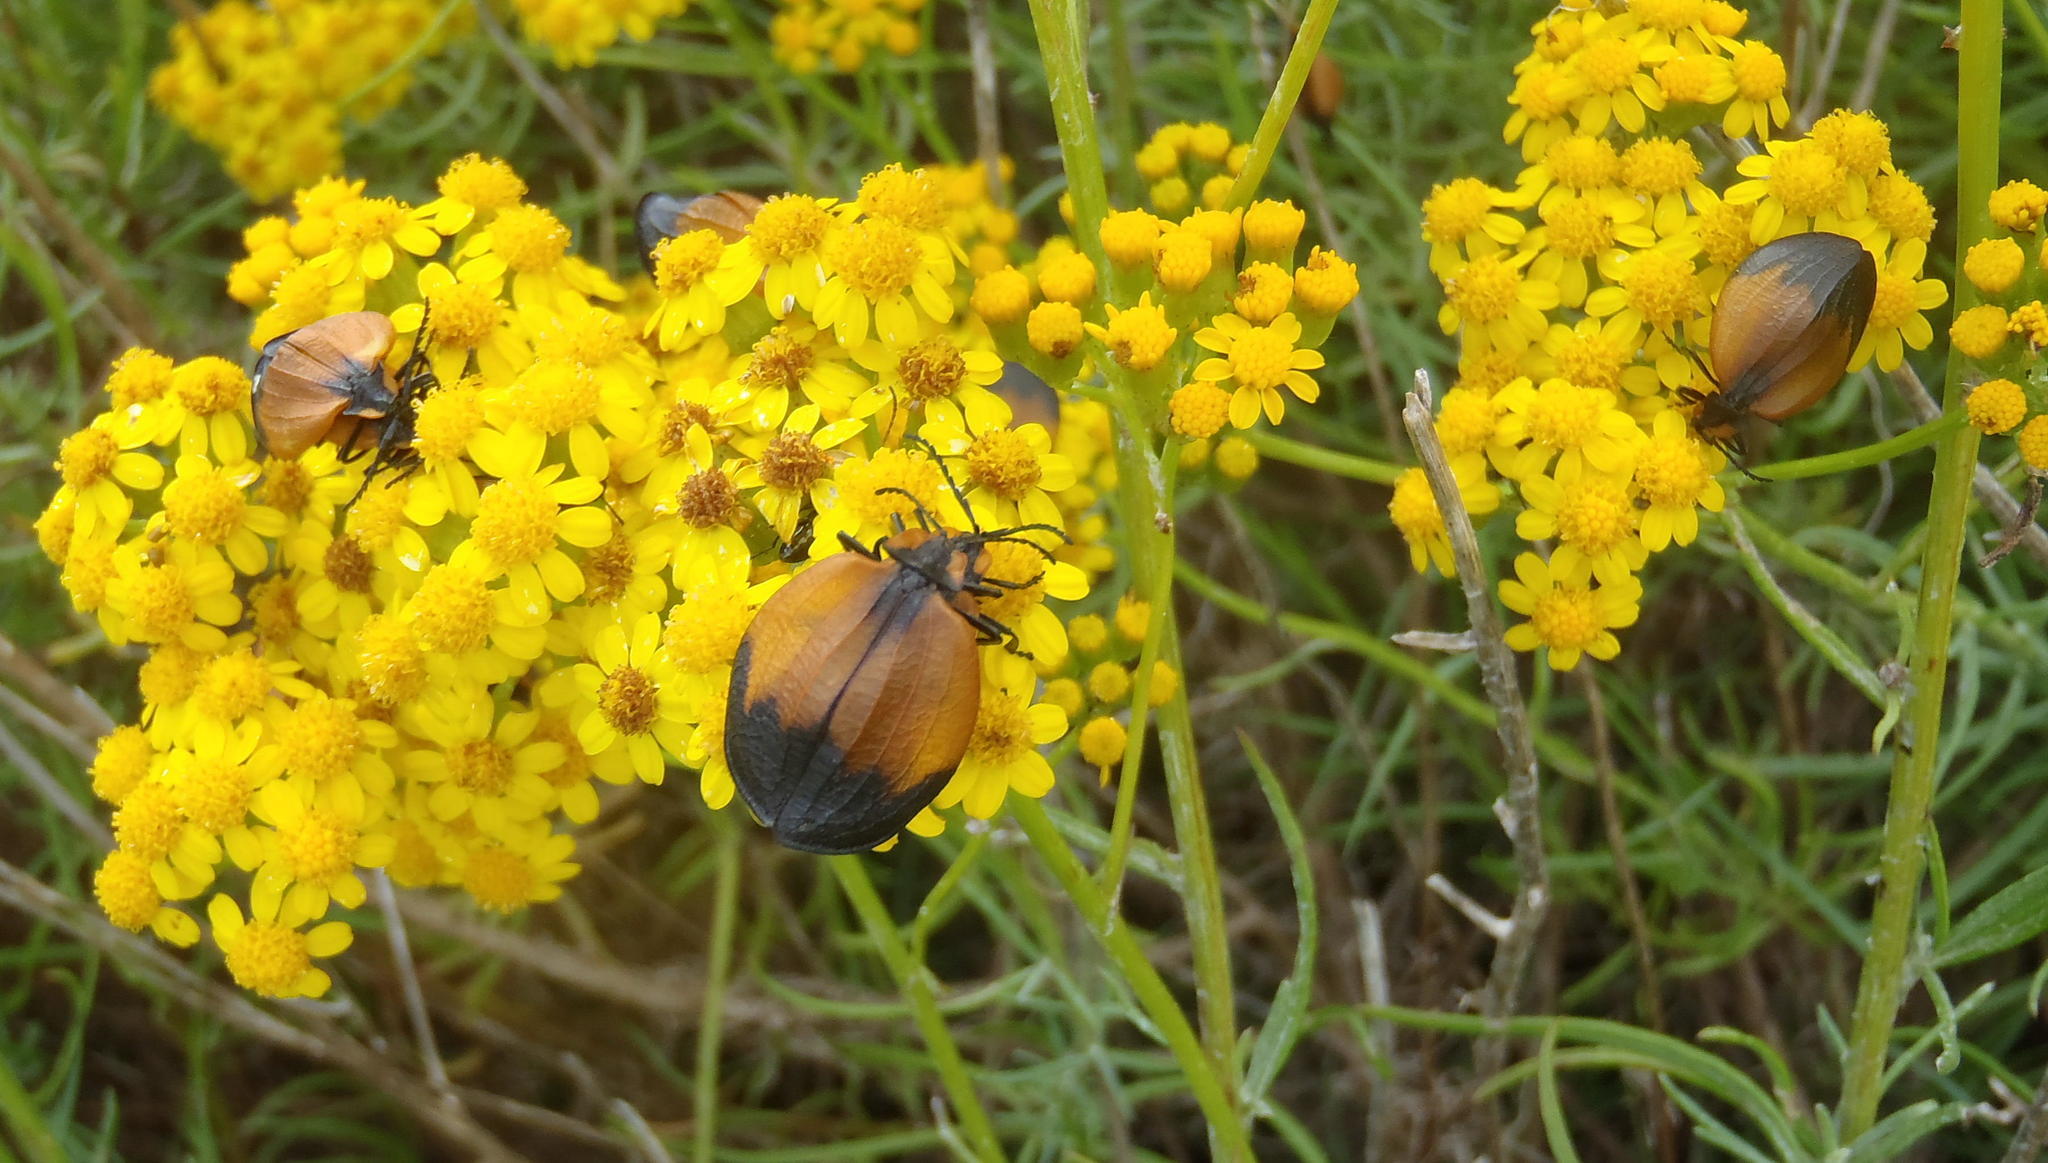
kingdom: Animalia
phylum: Arthropoda
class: Insecta
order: Coleoptera
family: Lycidae
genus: Lycus
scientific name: Lycus
